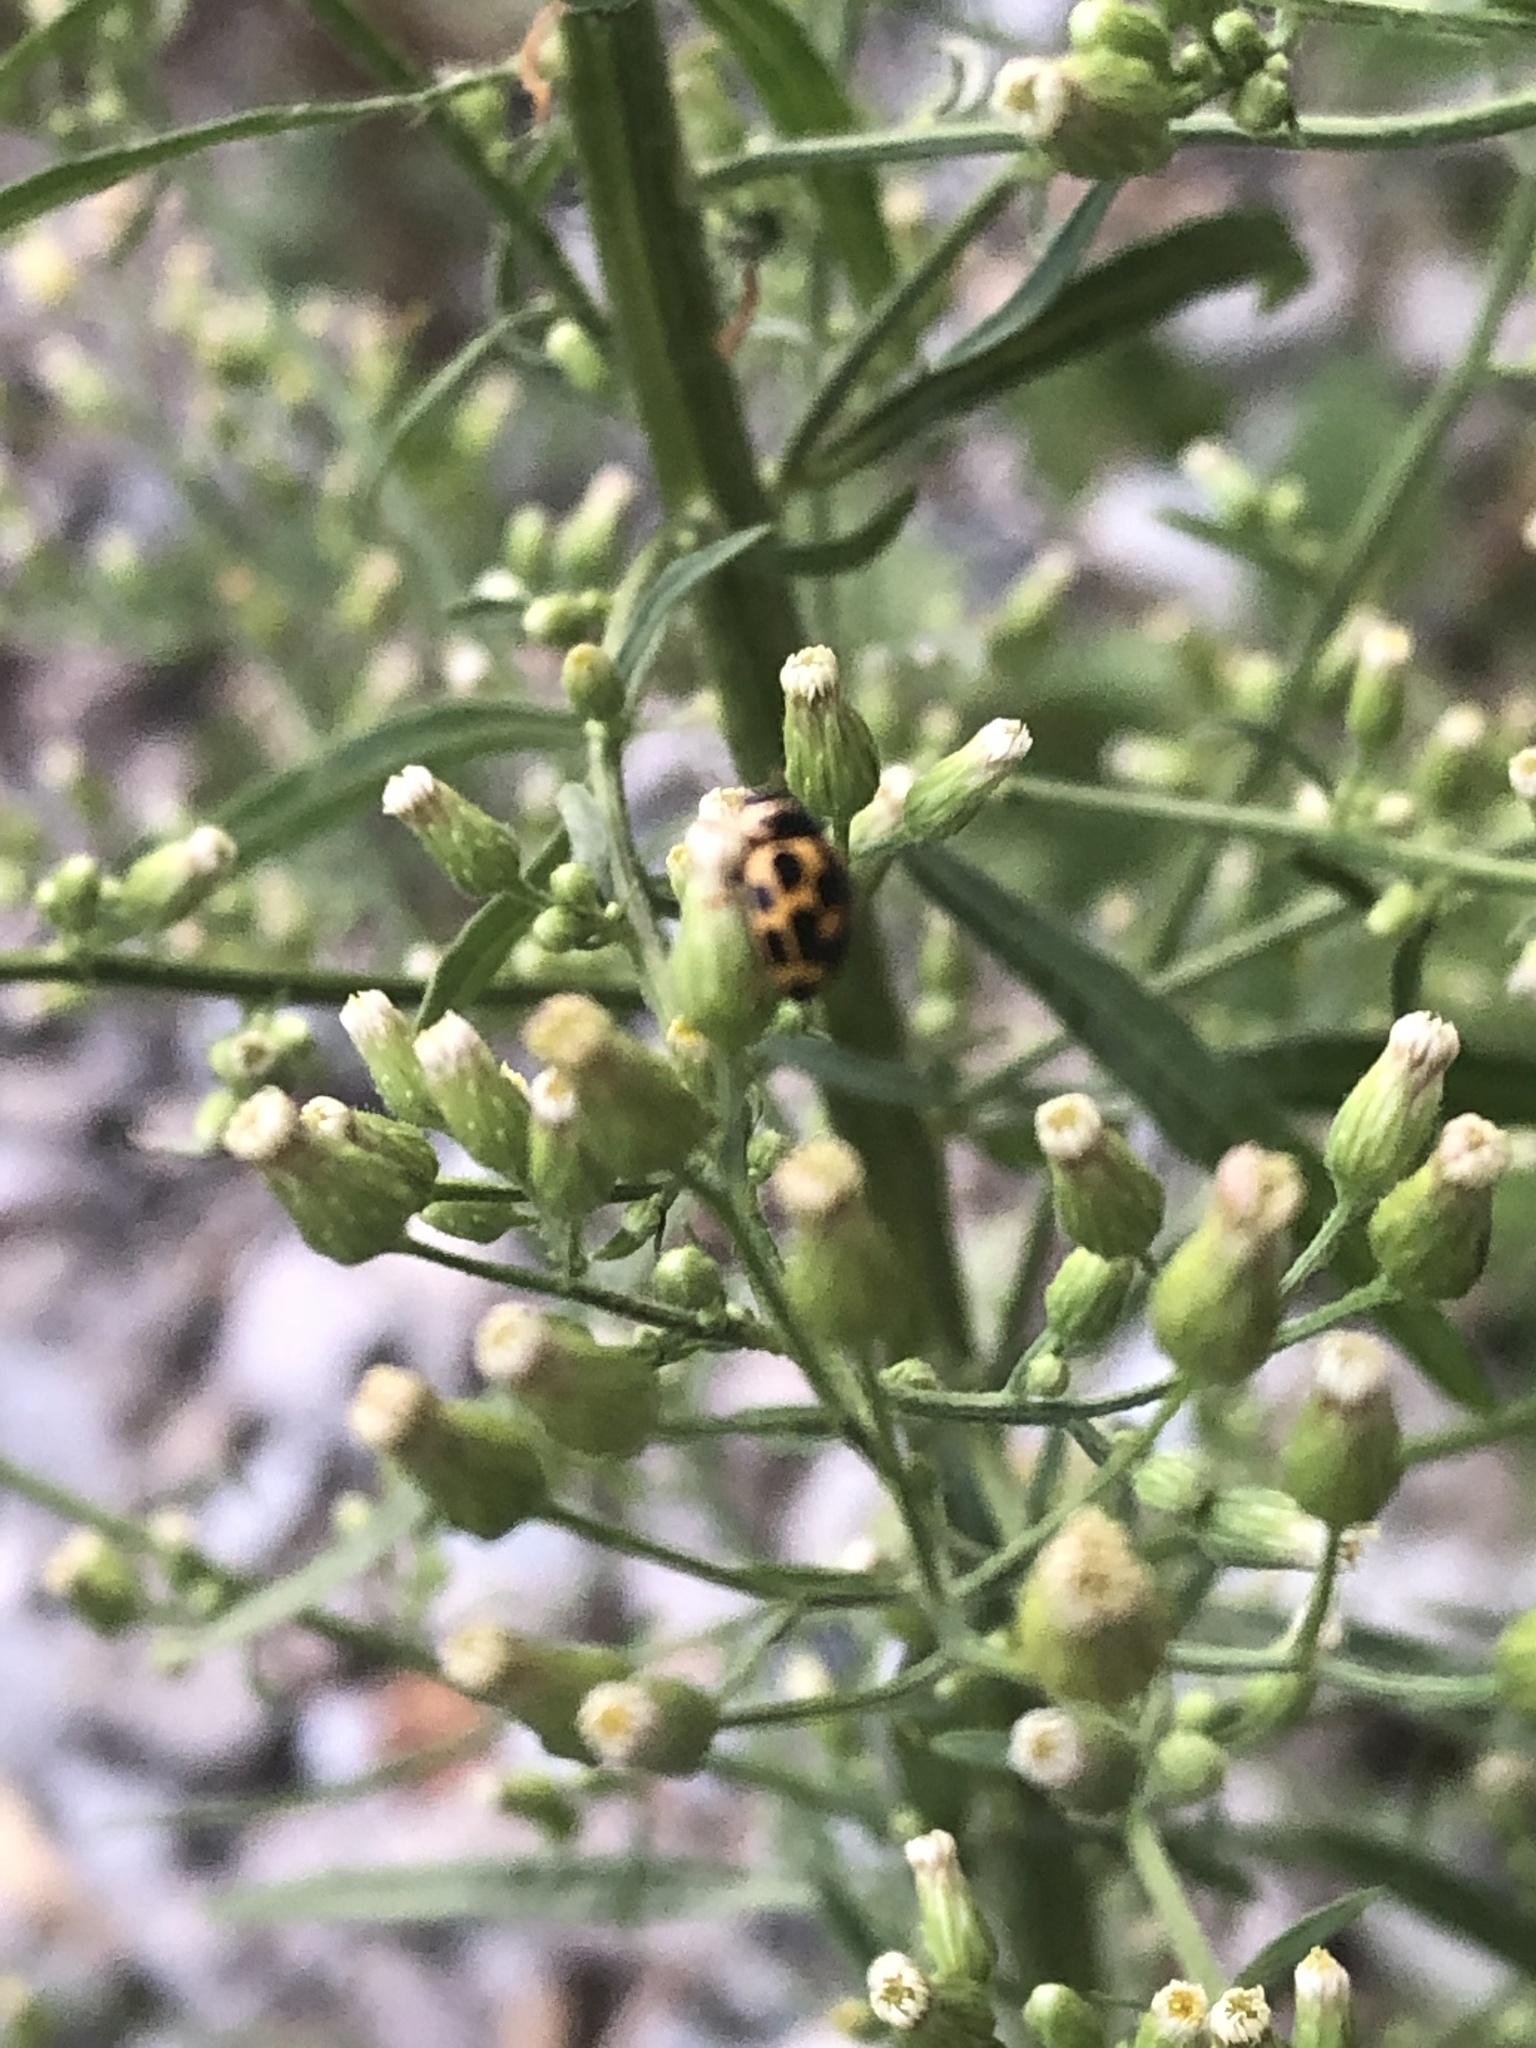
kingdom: Animalia
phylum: Arthropoda
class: Insecta
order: Coleoptera
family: Coccinellidae
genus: Propylaea
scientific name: Propylaea quatuordecimpunctata
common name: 14-spotted ladybird beetle
